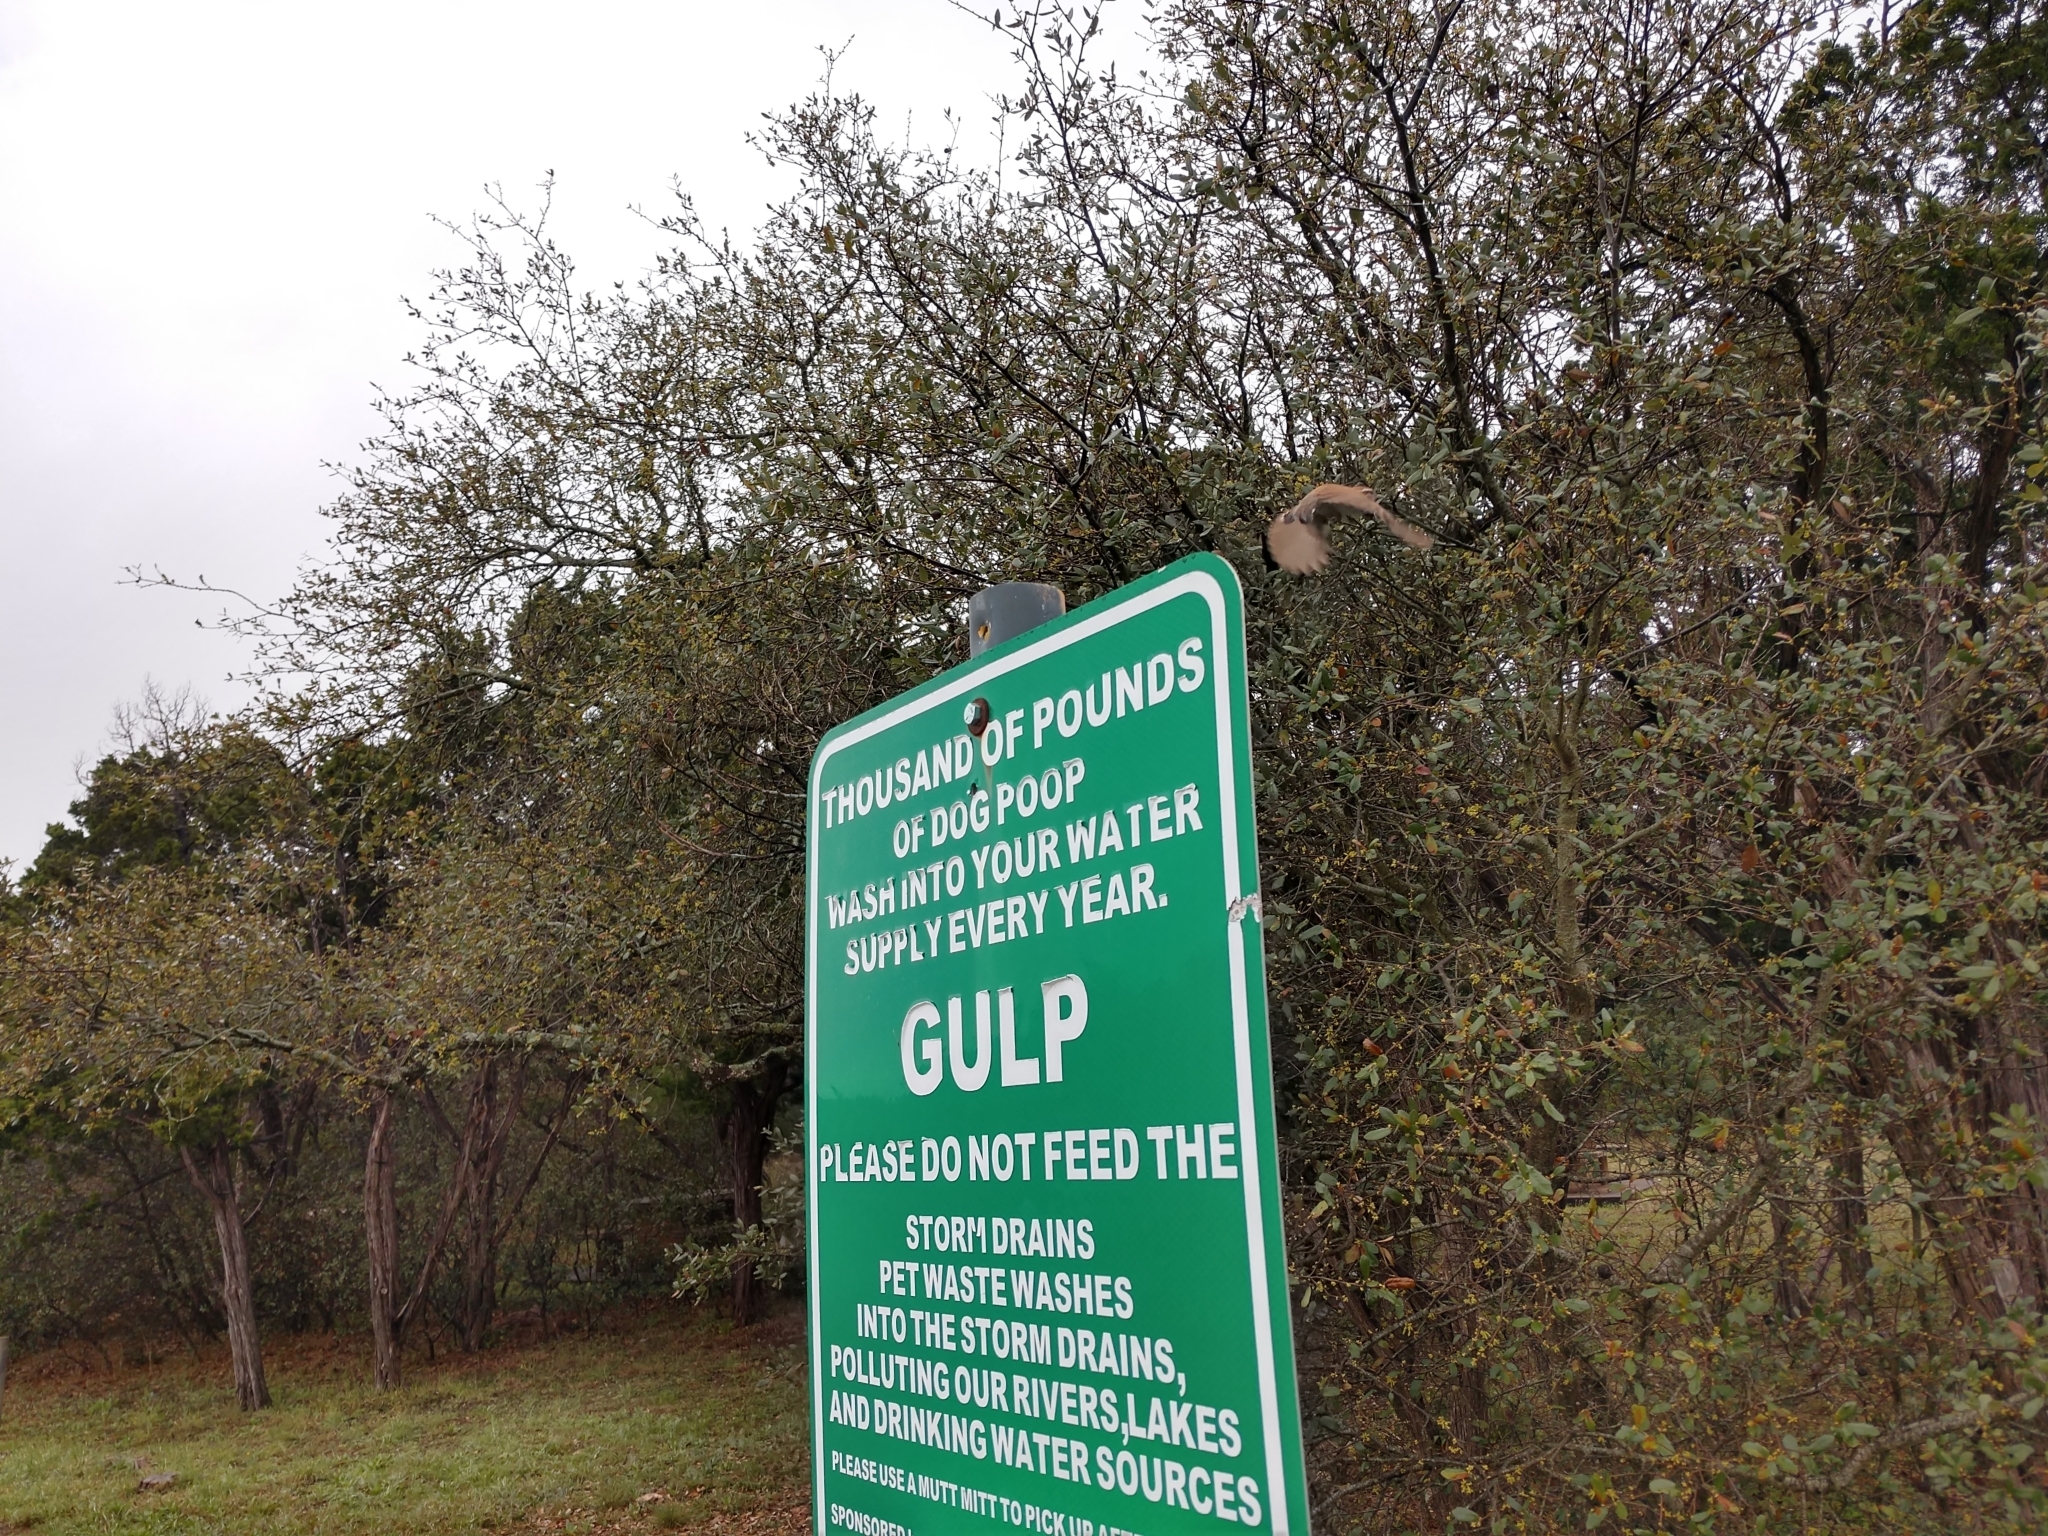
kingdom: Animalia
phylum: Chordata
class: Aves
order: Passeriformes
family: Troglodytidae
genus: Thryomanes
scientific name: Thryomanes bewickii
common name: Bewick's wren
